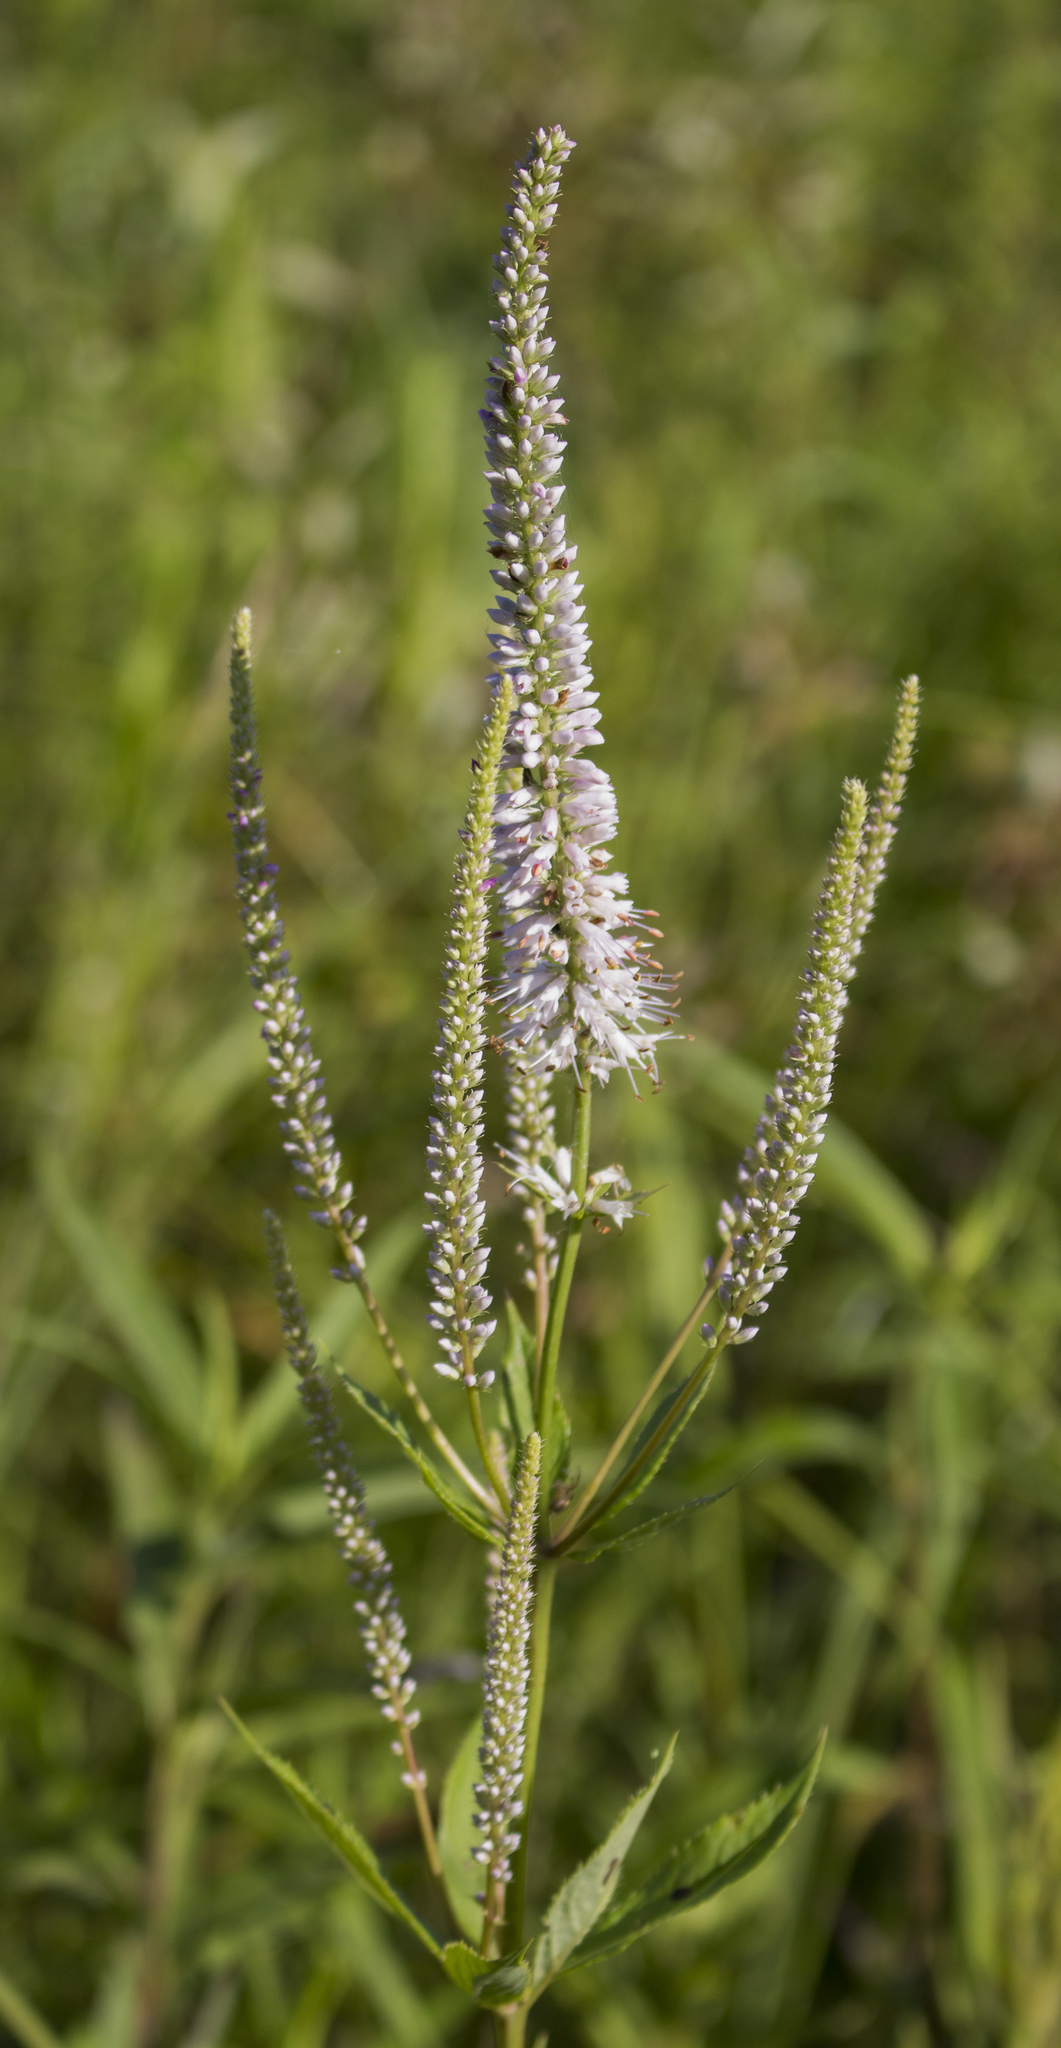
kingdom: Plantae
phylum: Tracheophyta
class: Magnoliopsida
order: Lamiales
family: Plantaginaceae
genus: Veronicastrum
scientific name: Veronicastrum virginicum
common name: Blackroot
